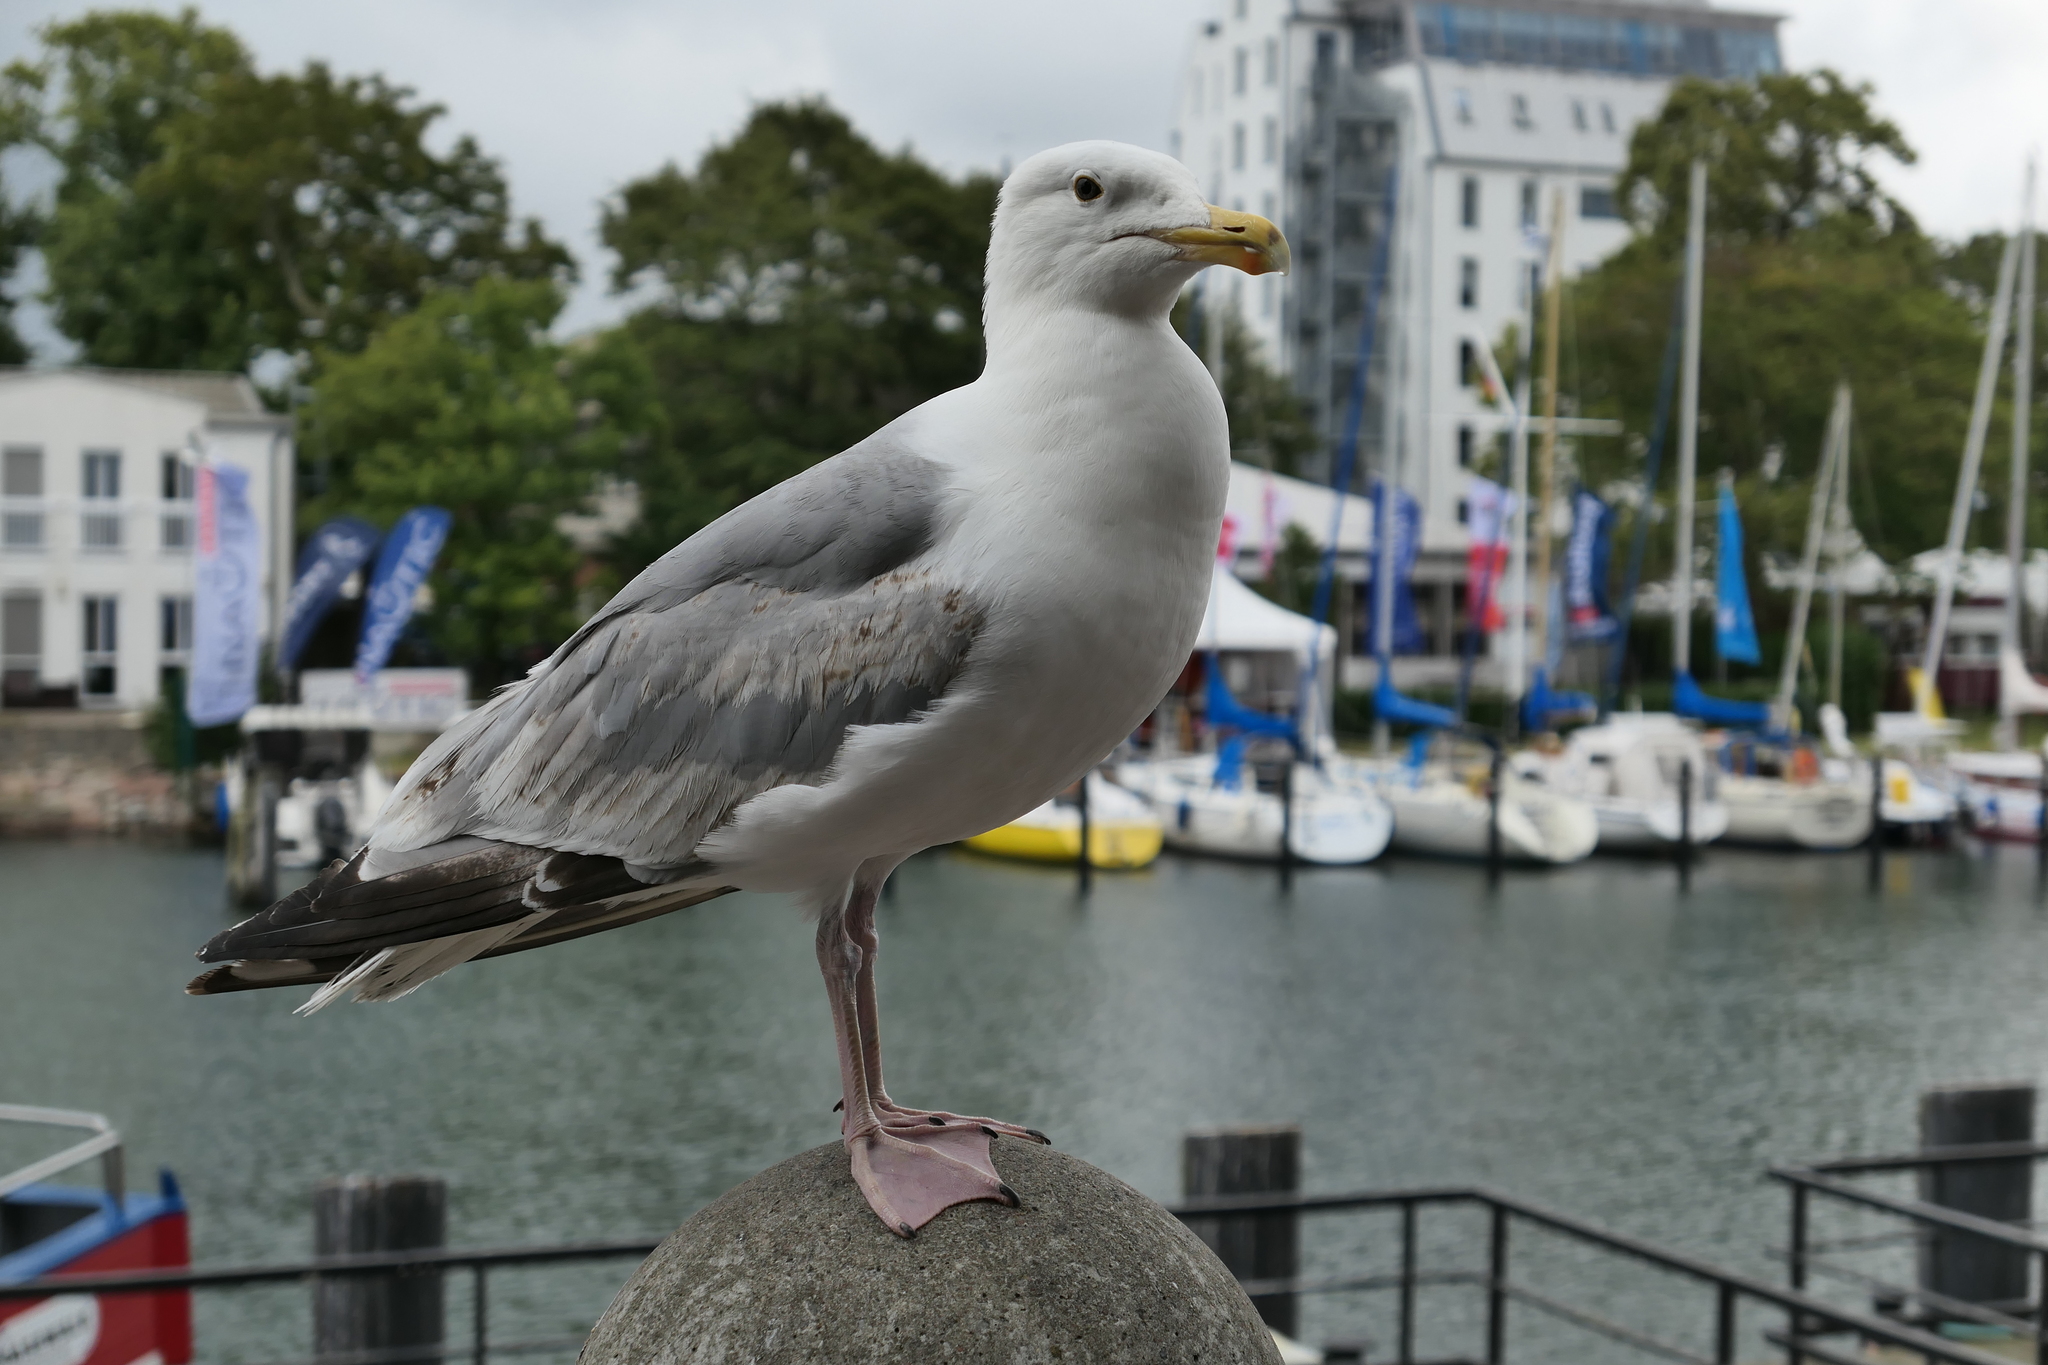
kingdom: Animalia
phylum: Chordata
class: Aves
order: Charadriiformes
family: Laridae
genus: Larus
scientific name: Larus argentatus
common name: Herring gull
